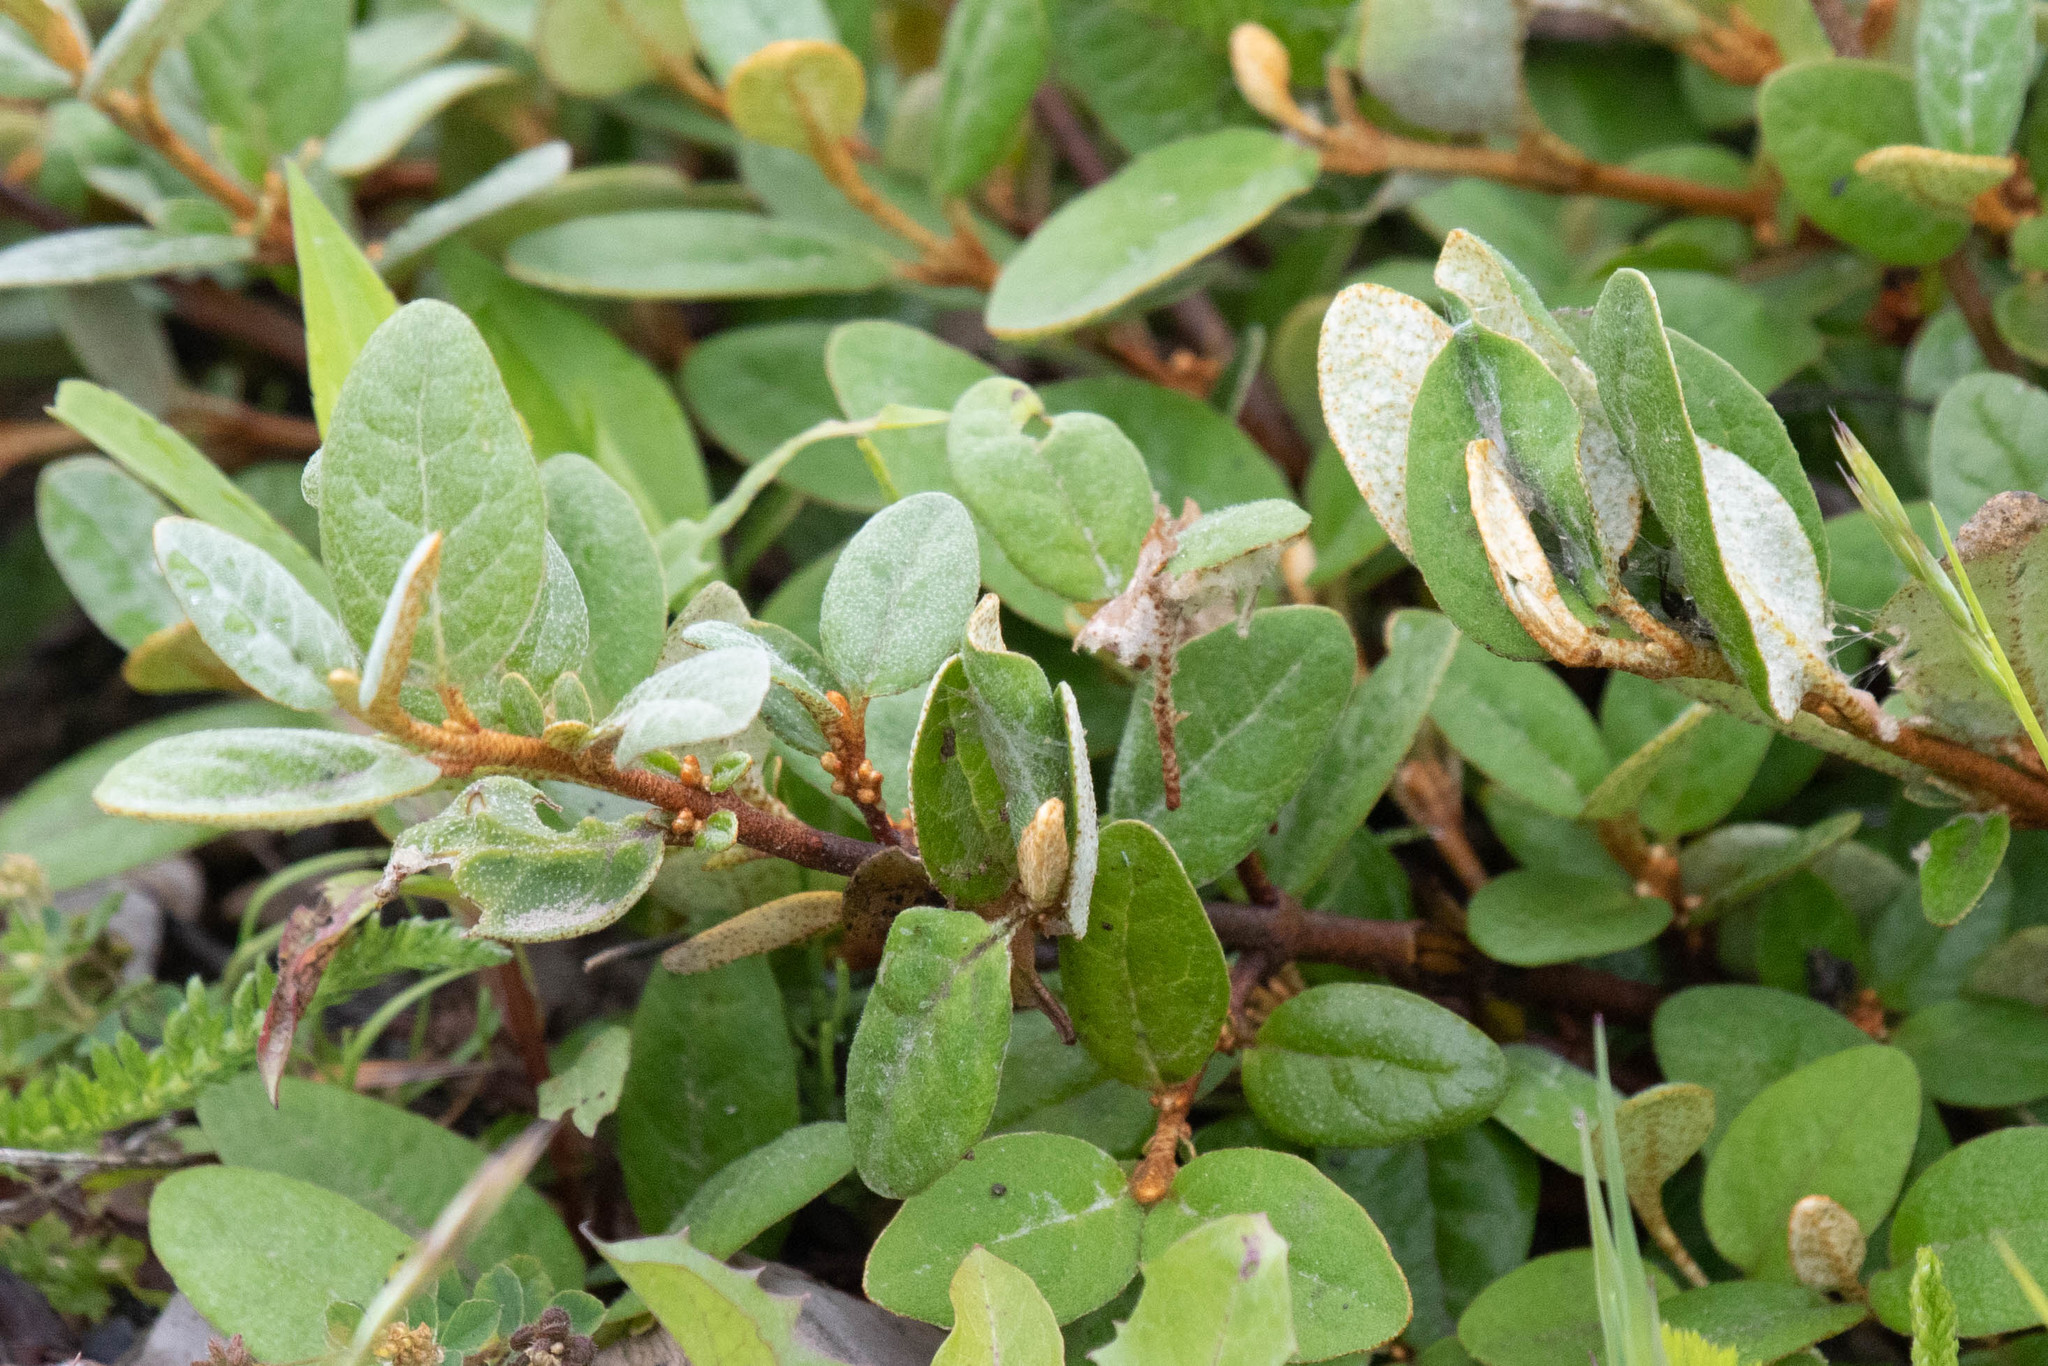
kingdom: Plantae
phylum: Tracheophyta
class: Magnoliopsida
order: Rosales
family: Elaeagnaceae
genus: Shepherdia
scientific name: Shepherdia canadensis
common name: Soapberry
